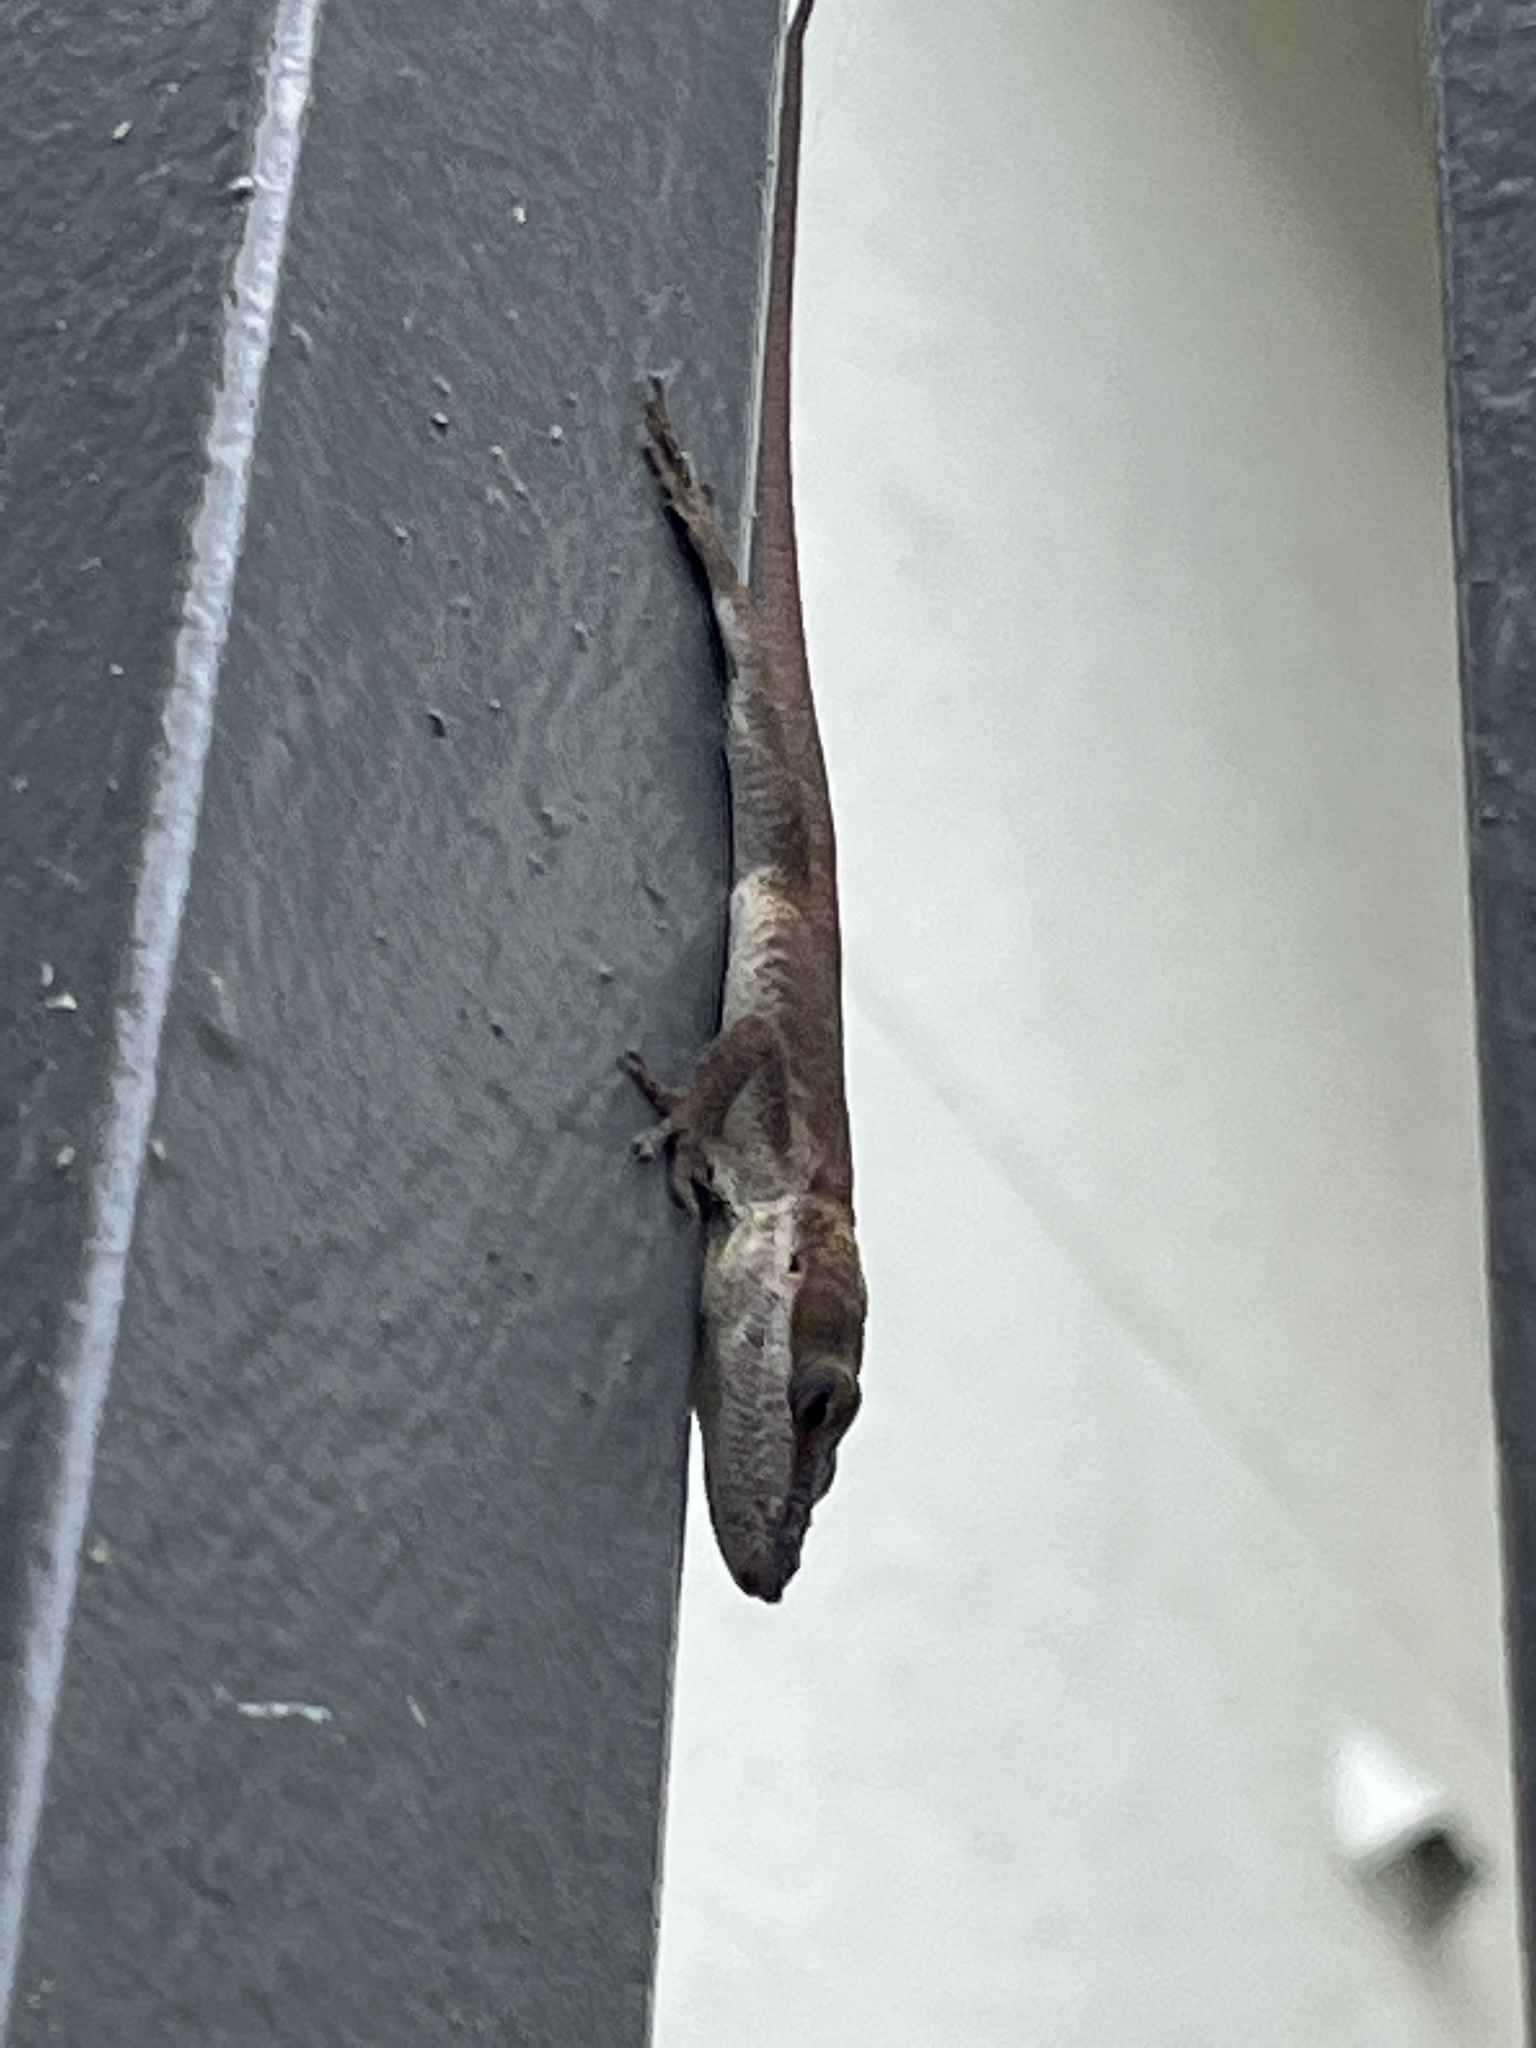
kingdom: Animalia
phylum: Chordata
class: Squamata
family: Dactyloidae
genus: Anolis
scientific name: Anolis carolinensis
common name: Green anole
